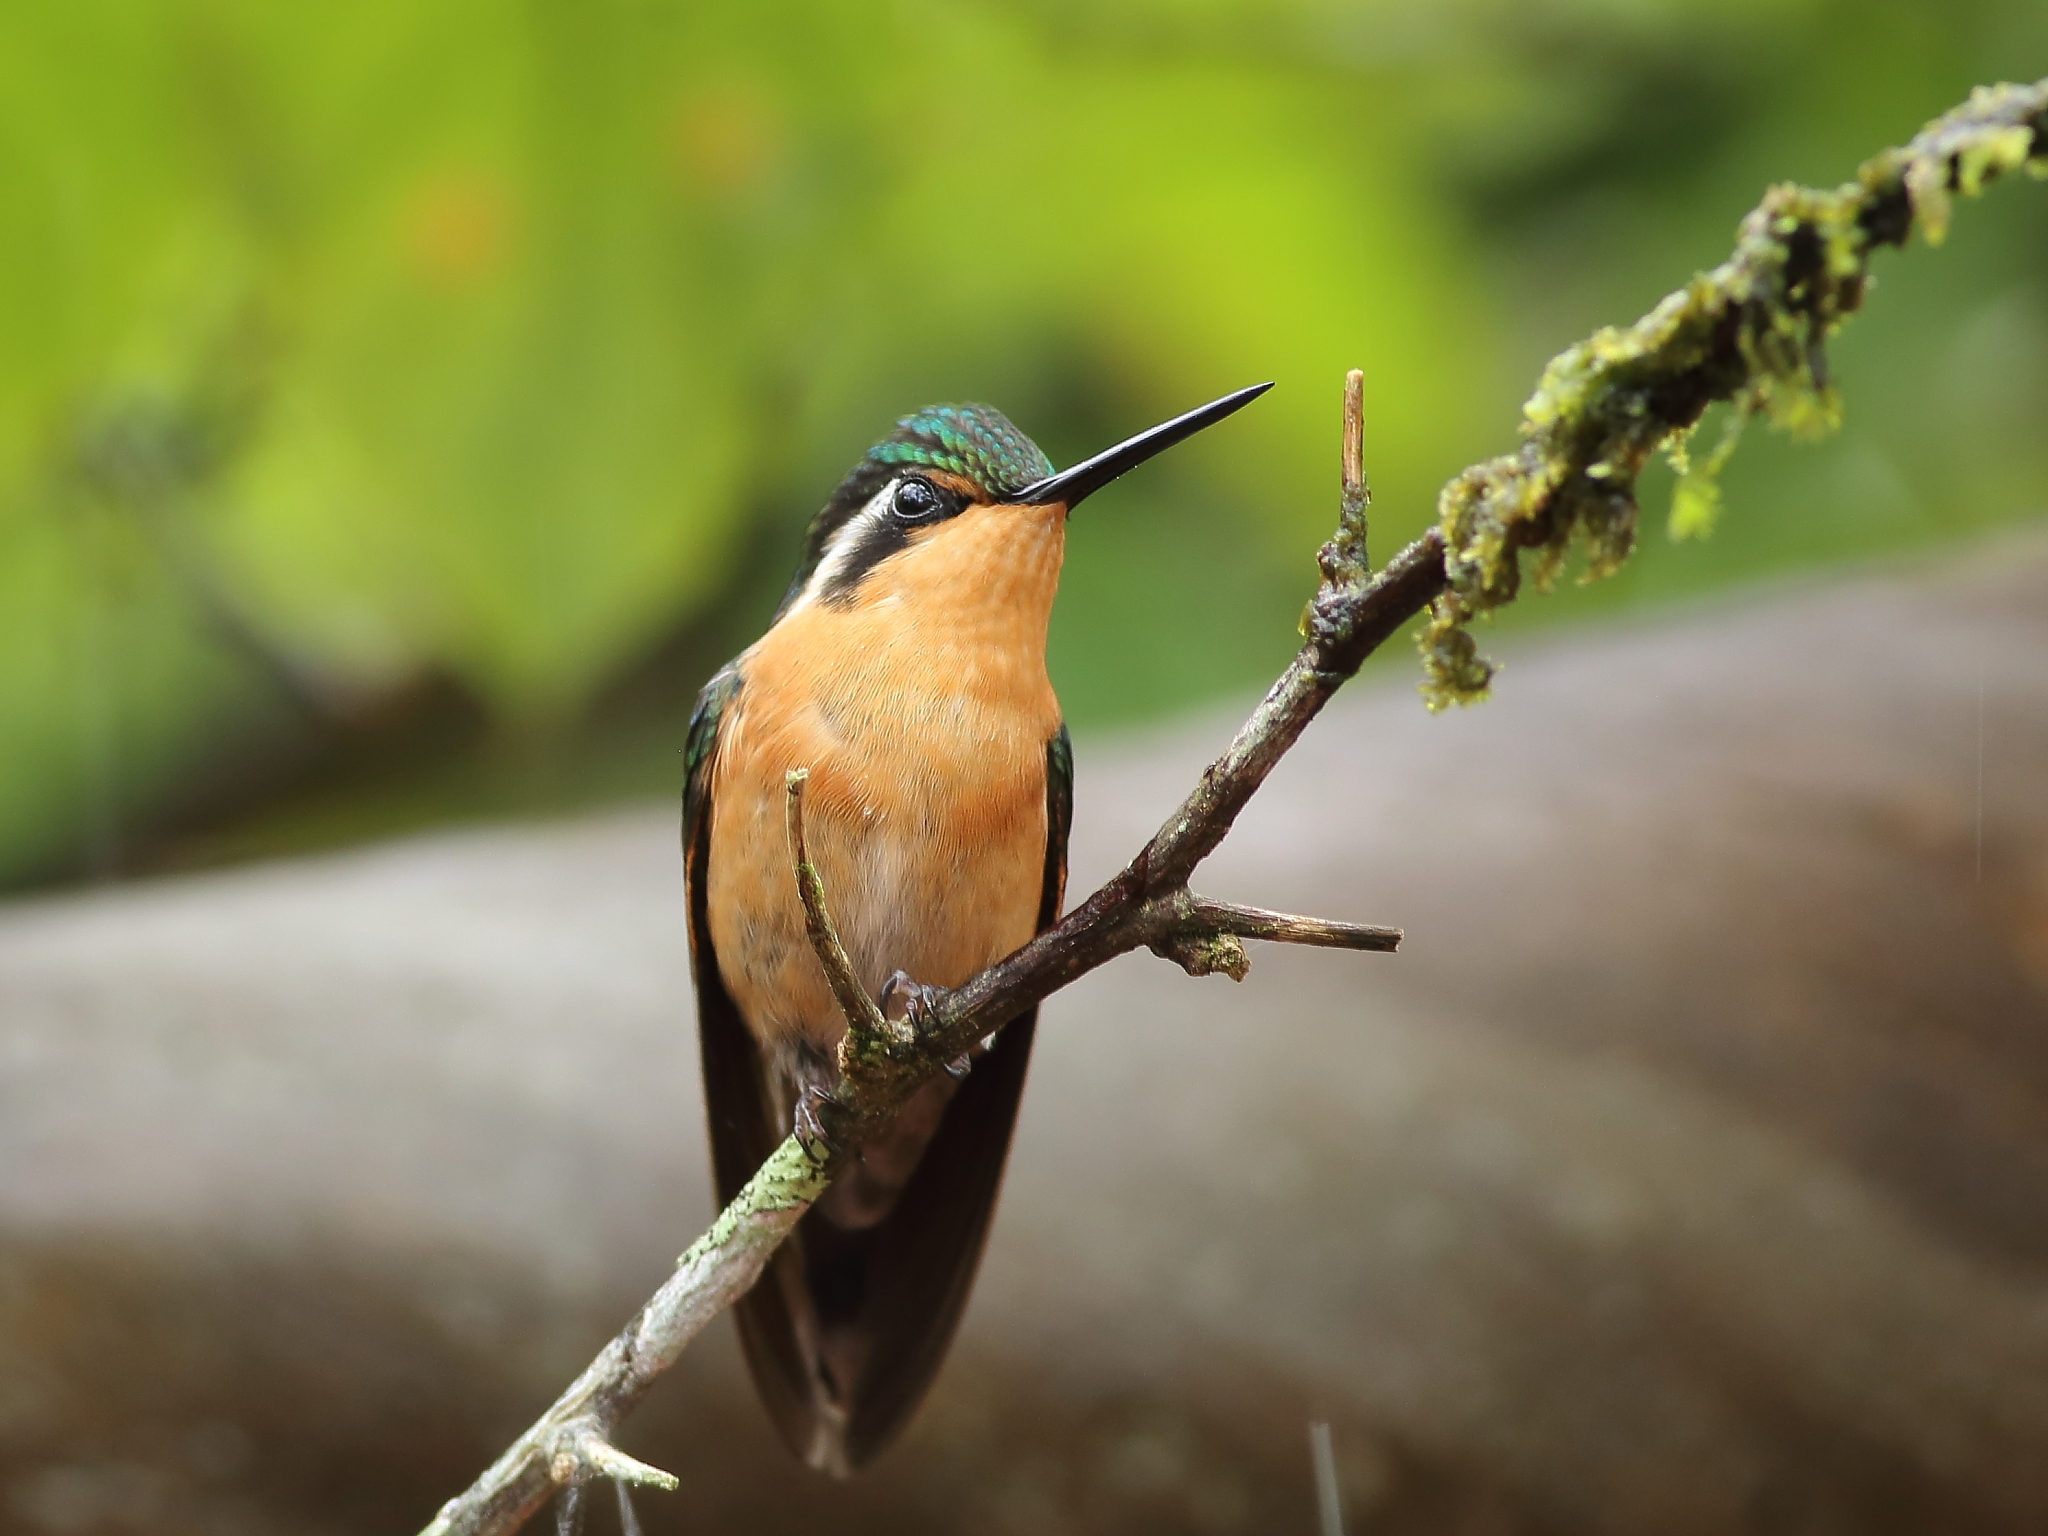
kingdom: Animalia
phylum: Chordata
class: Aves
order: Apodiformes
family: Trochilidae
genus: Lampornis
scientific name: Lampornis calolaemus
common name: Purple-throated mountain-gem
